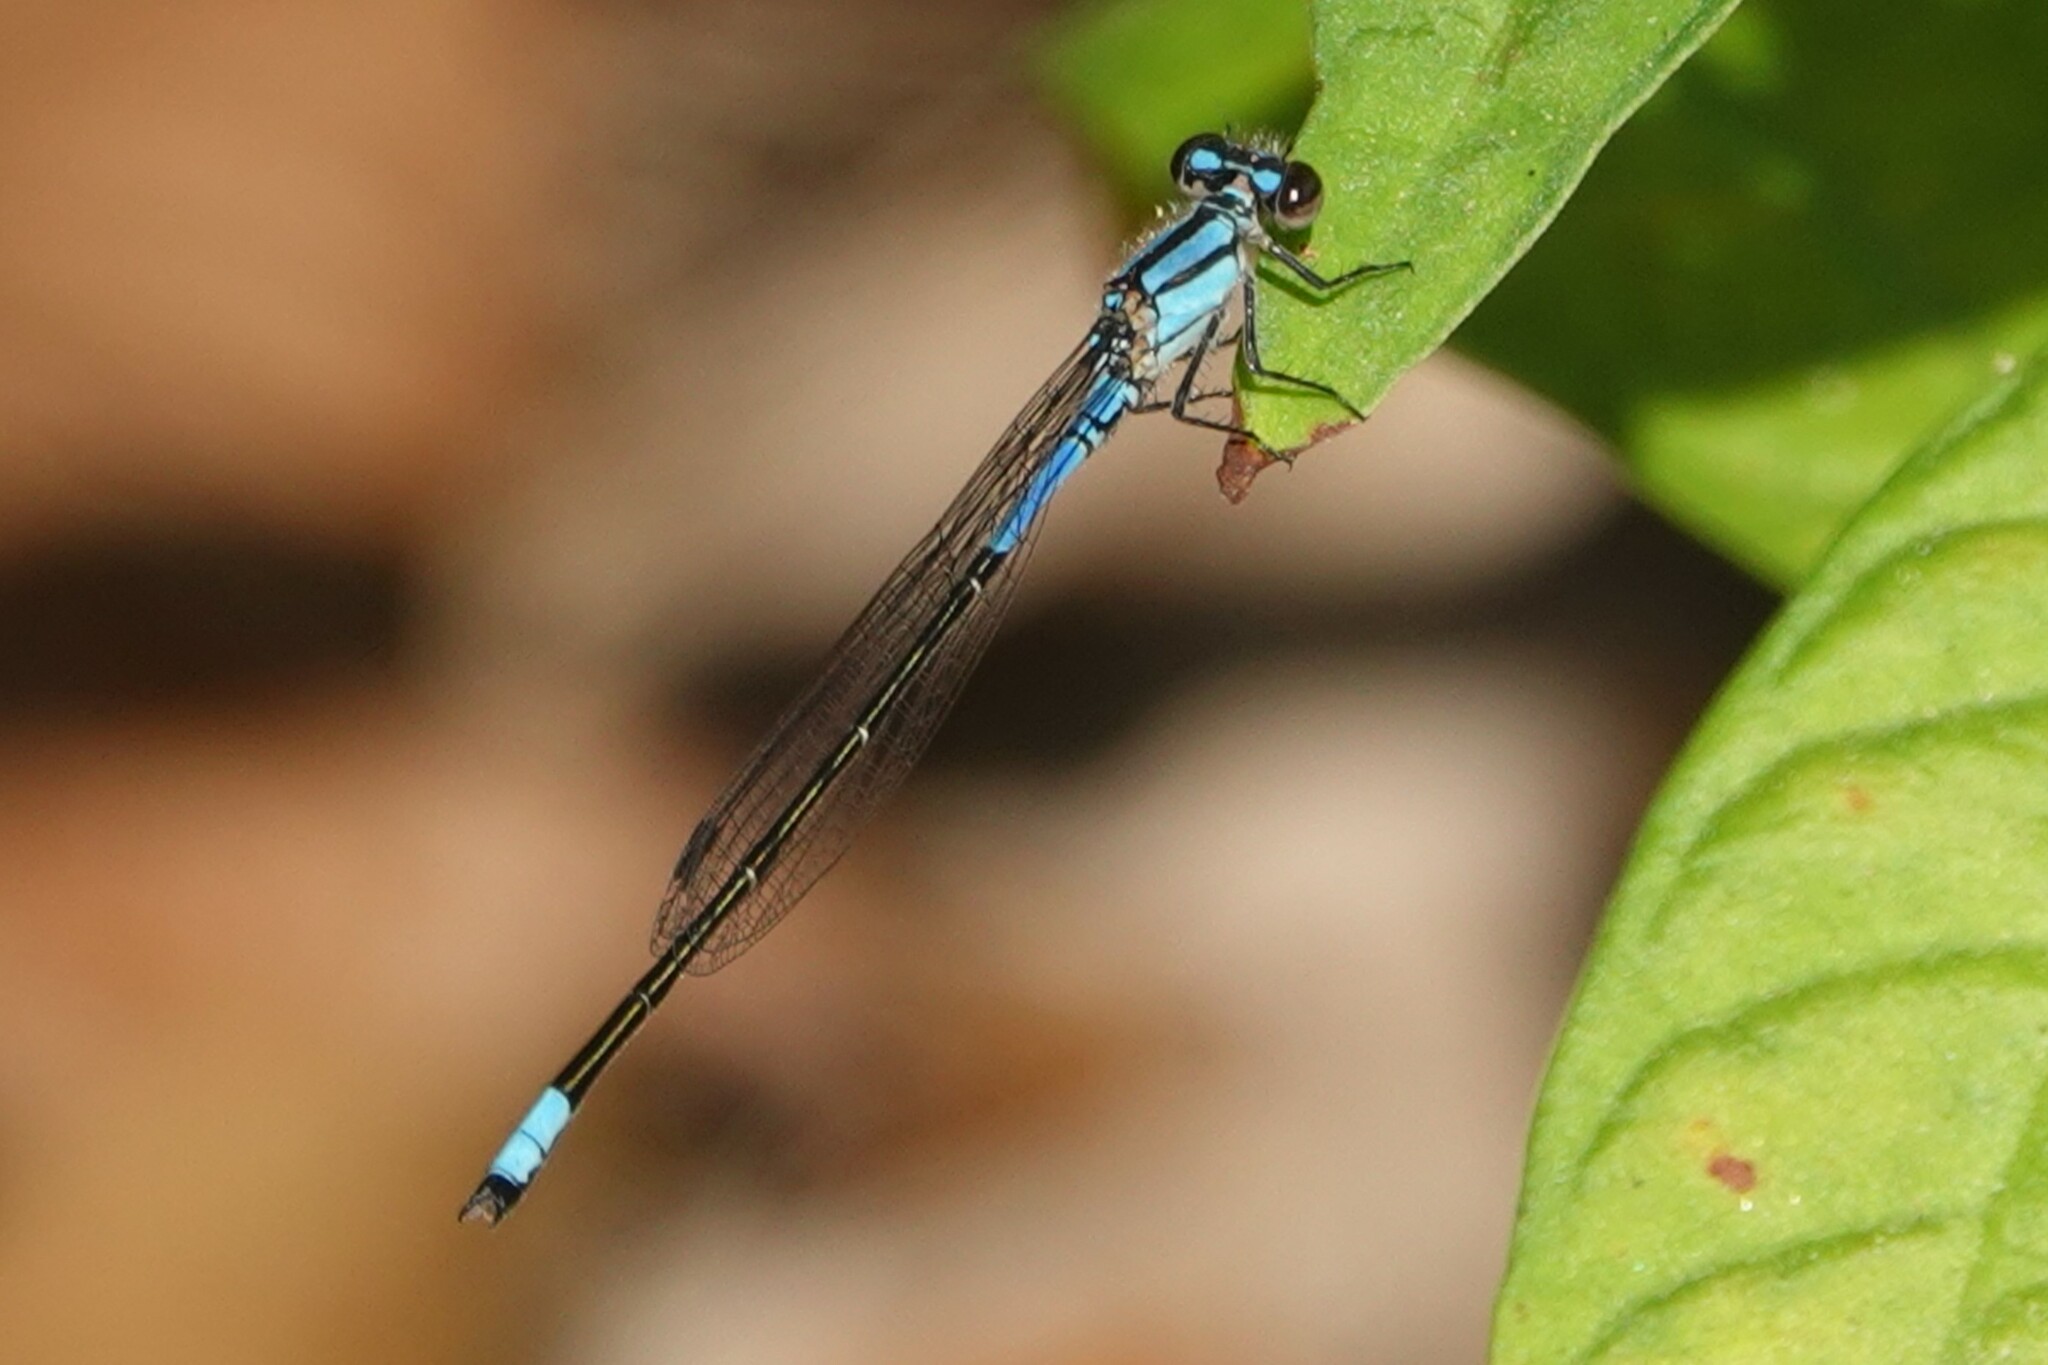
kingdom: Animalia
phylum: Arthropoda
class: Insecta
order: Odonata
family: Coenagrionidae
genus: Enallagma
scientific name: Enallagma cardenium
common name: Purple bluet
